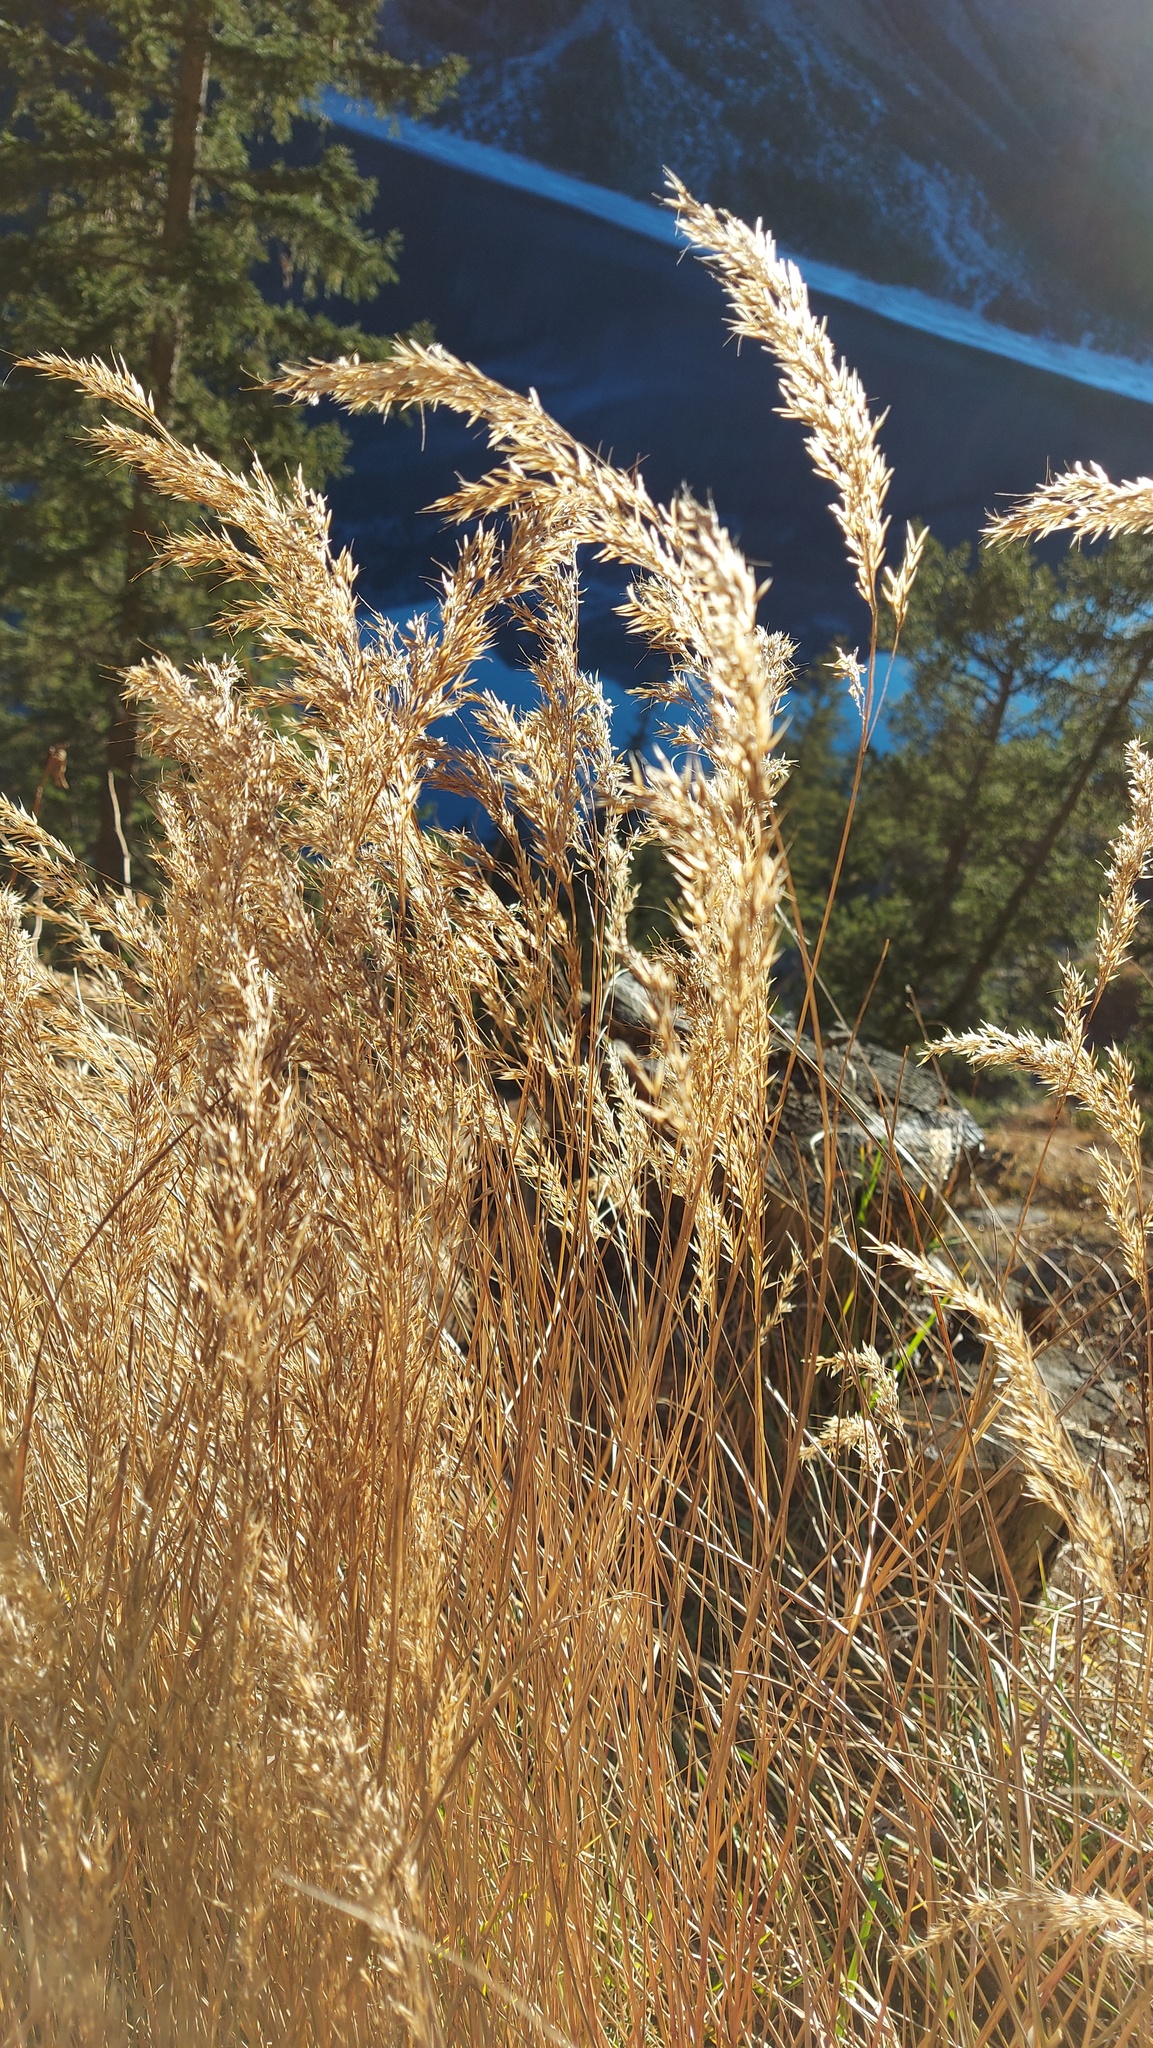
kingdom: Plantae
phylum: Tracheophyta
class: Liliopsida
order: Poales
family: Poaceae
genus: Achnatherum
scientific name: Achnatherum calamagrostis
